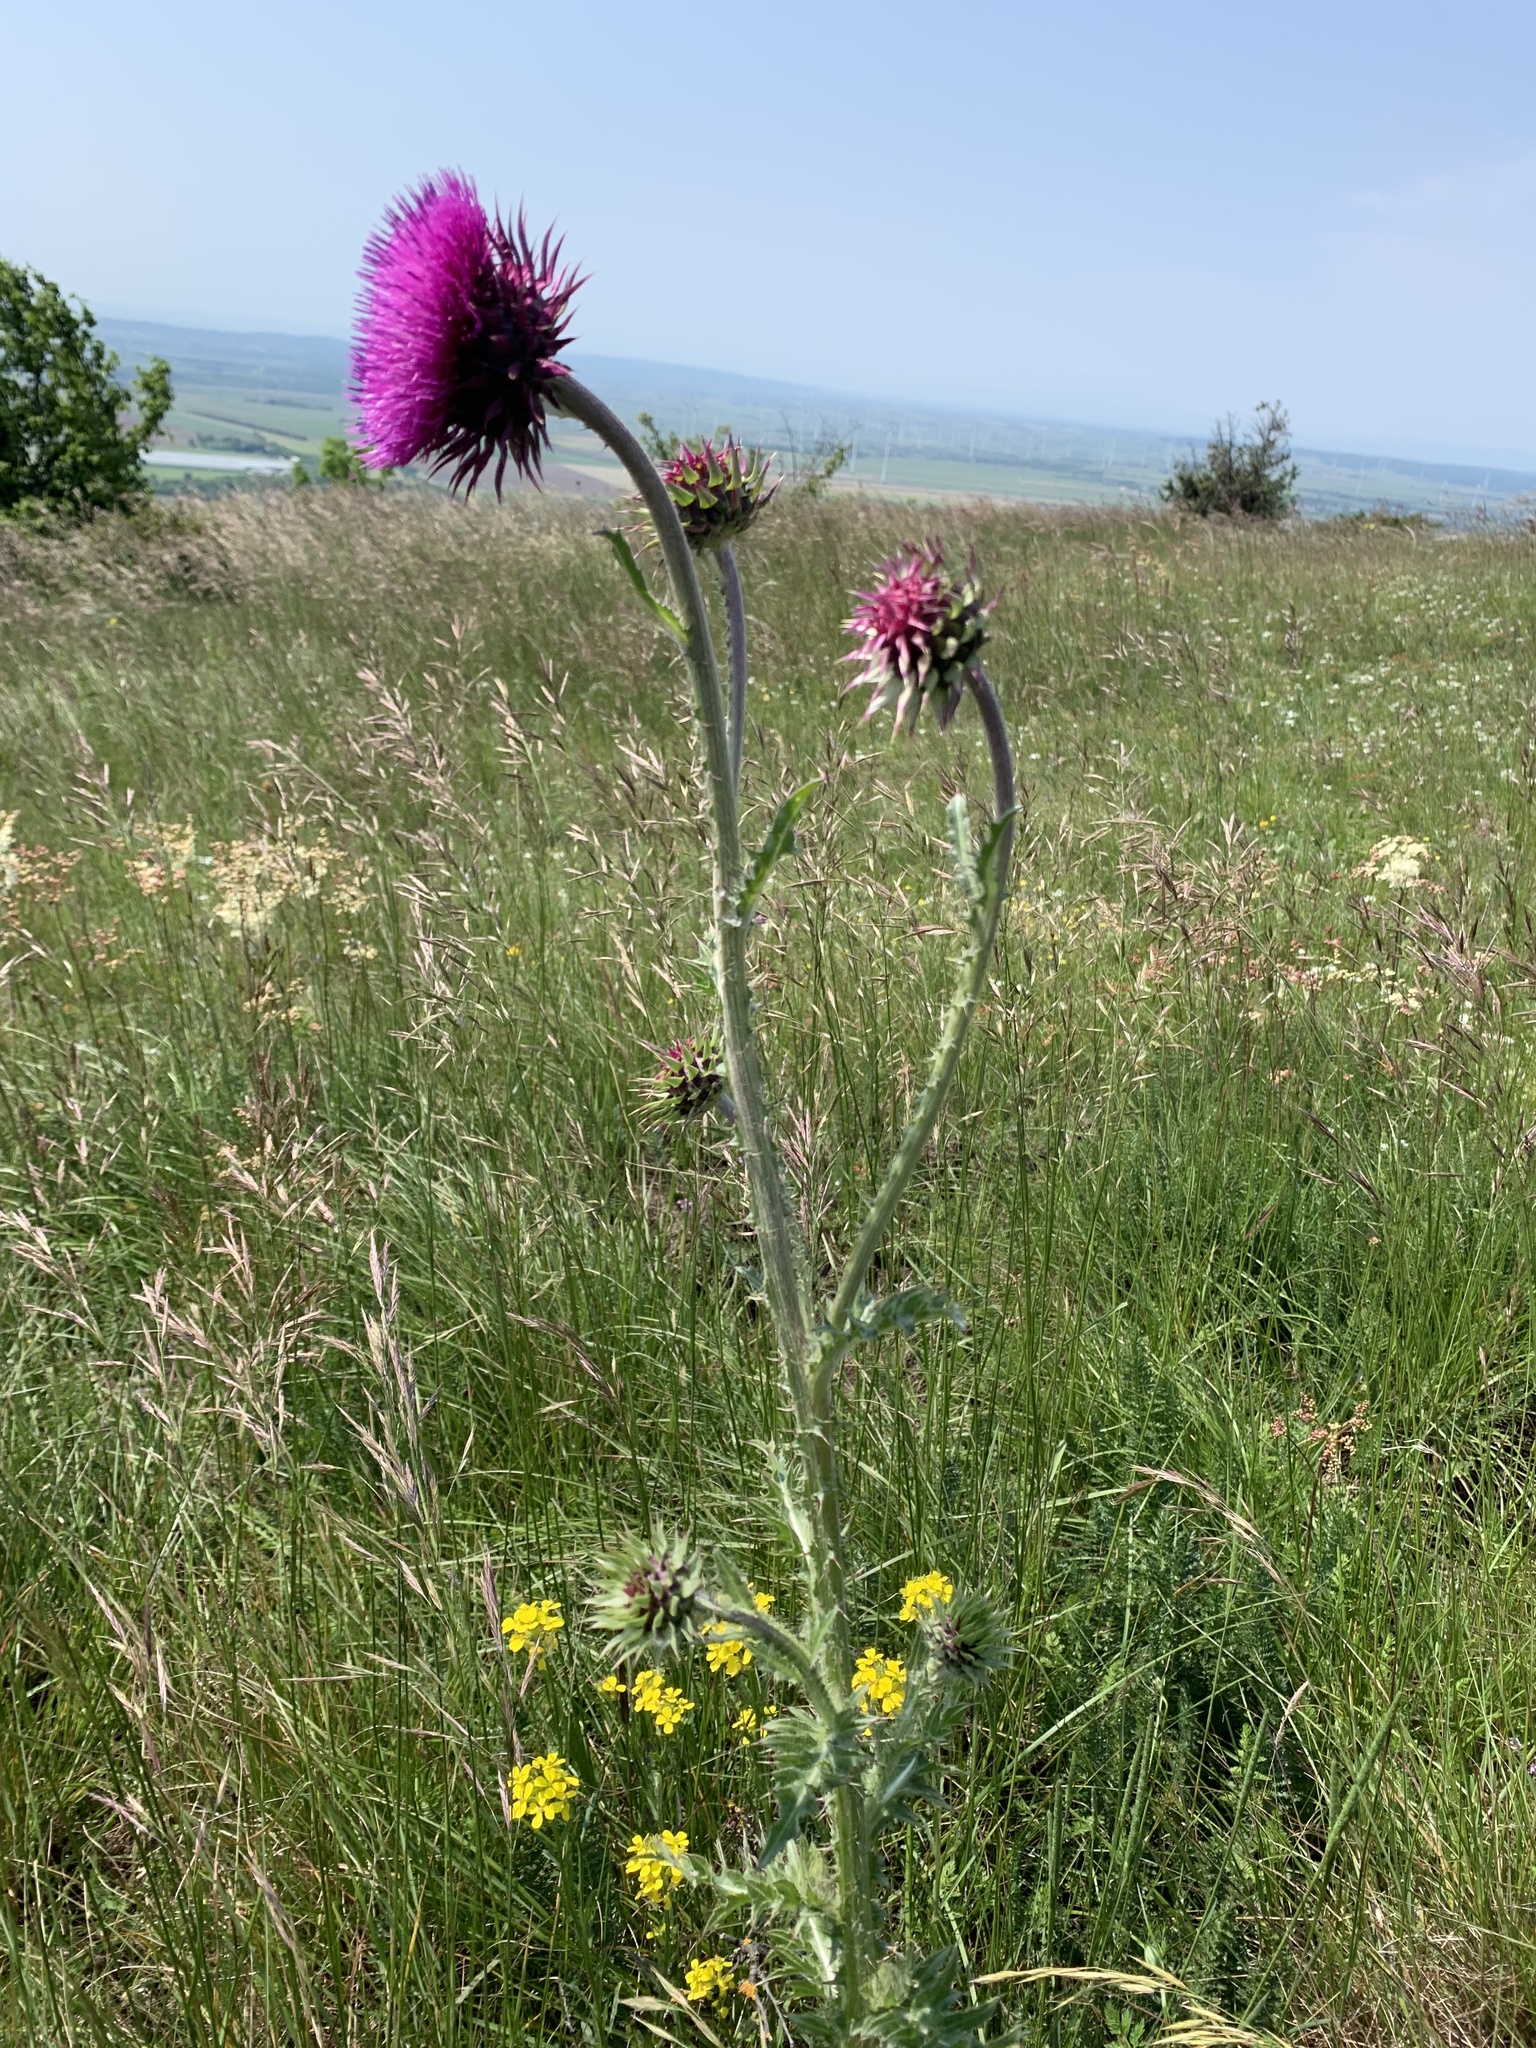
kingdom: Plantae
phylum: Tracheophyta
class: Magnoliopsida
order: Asterales
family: Asteraceae
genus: Carduus
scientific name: Carduus nutans
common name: Musk thistle
